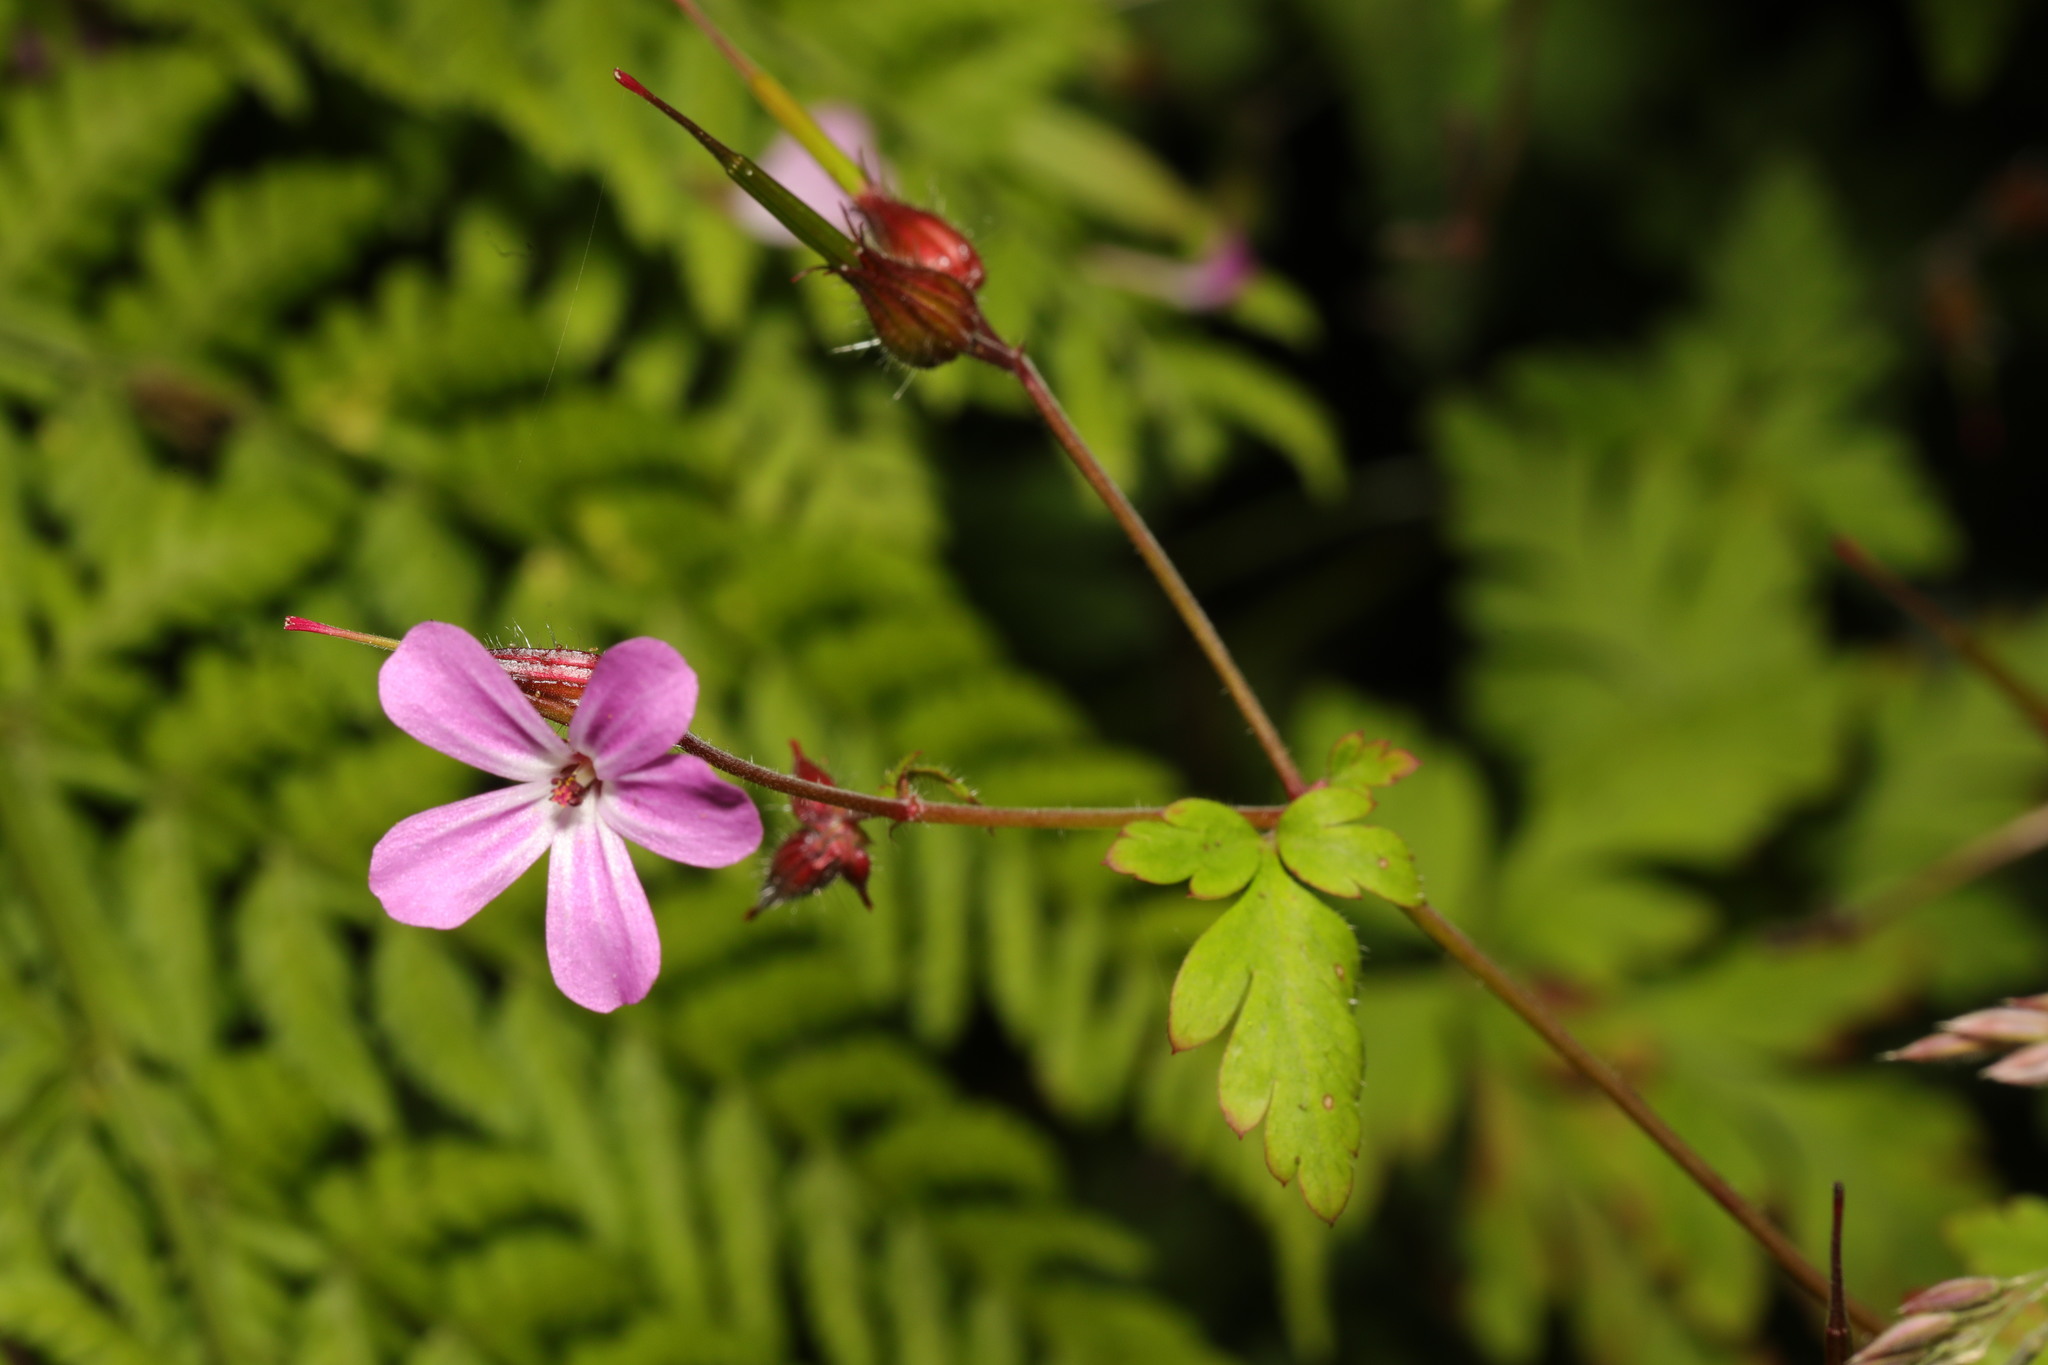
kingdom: Plantae
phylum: Tracheophyta
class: Magnoliopsida
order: Geraniales
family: Geraniaceae
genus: Geranium
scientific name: Geranium robertianum
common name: Herb-robert
